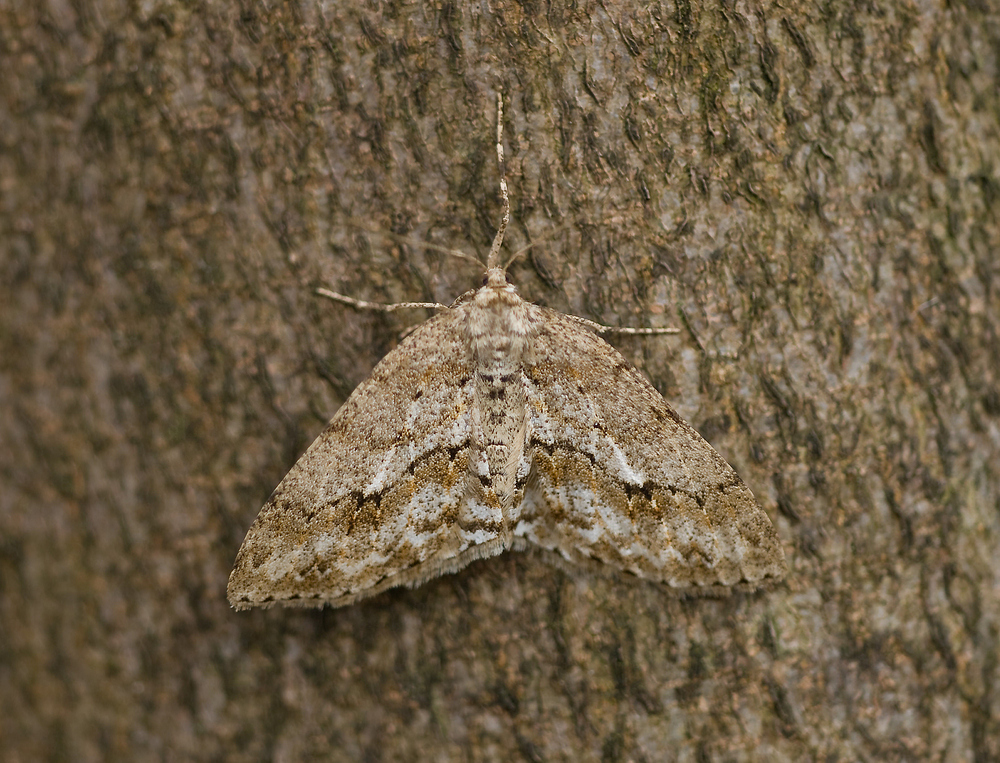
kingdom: Animalia
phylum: Arthropoda
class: Insecta
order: Lepidoptera
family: Geometridae
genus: Ectropis
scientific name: Ectropis crepuscularia
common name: Engrailed
